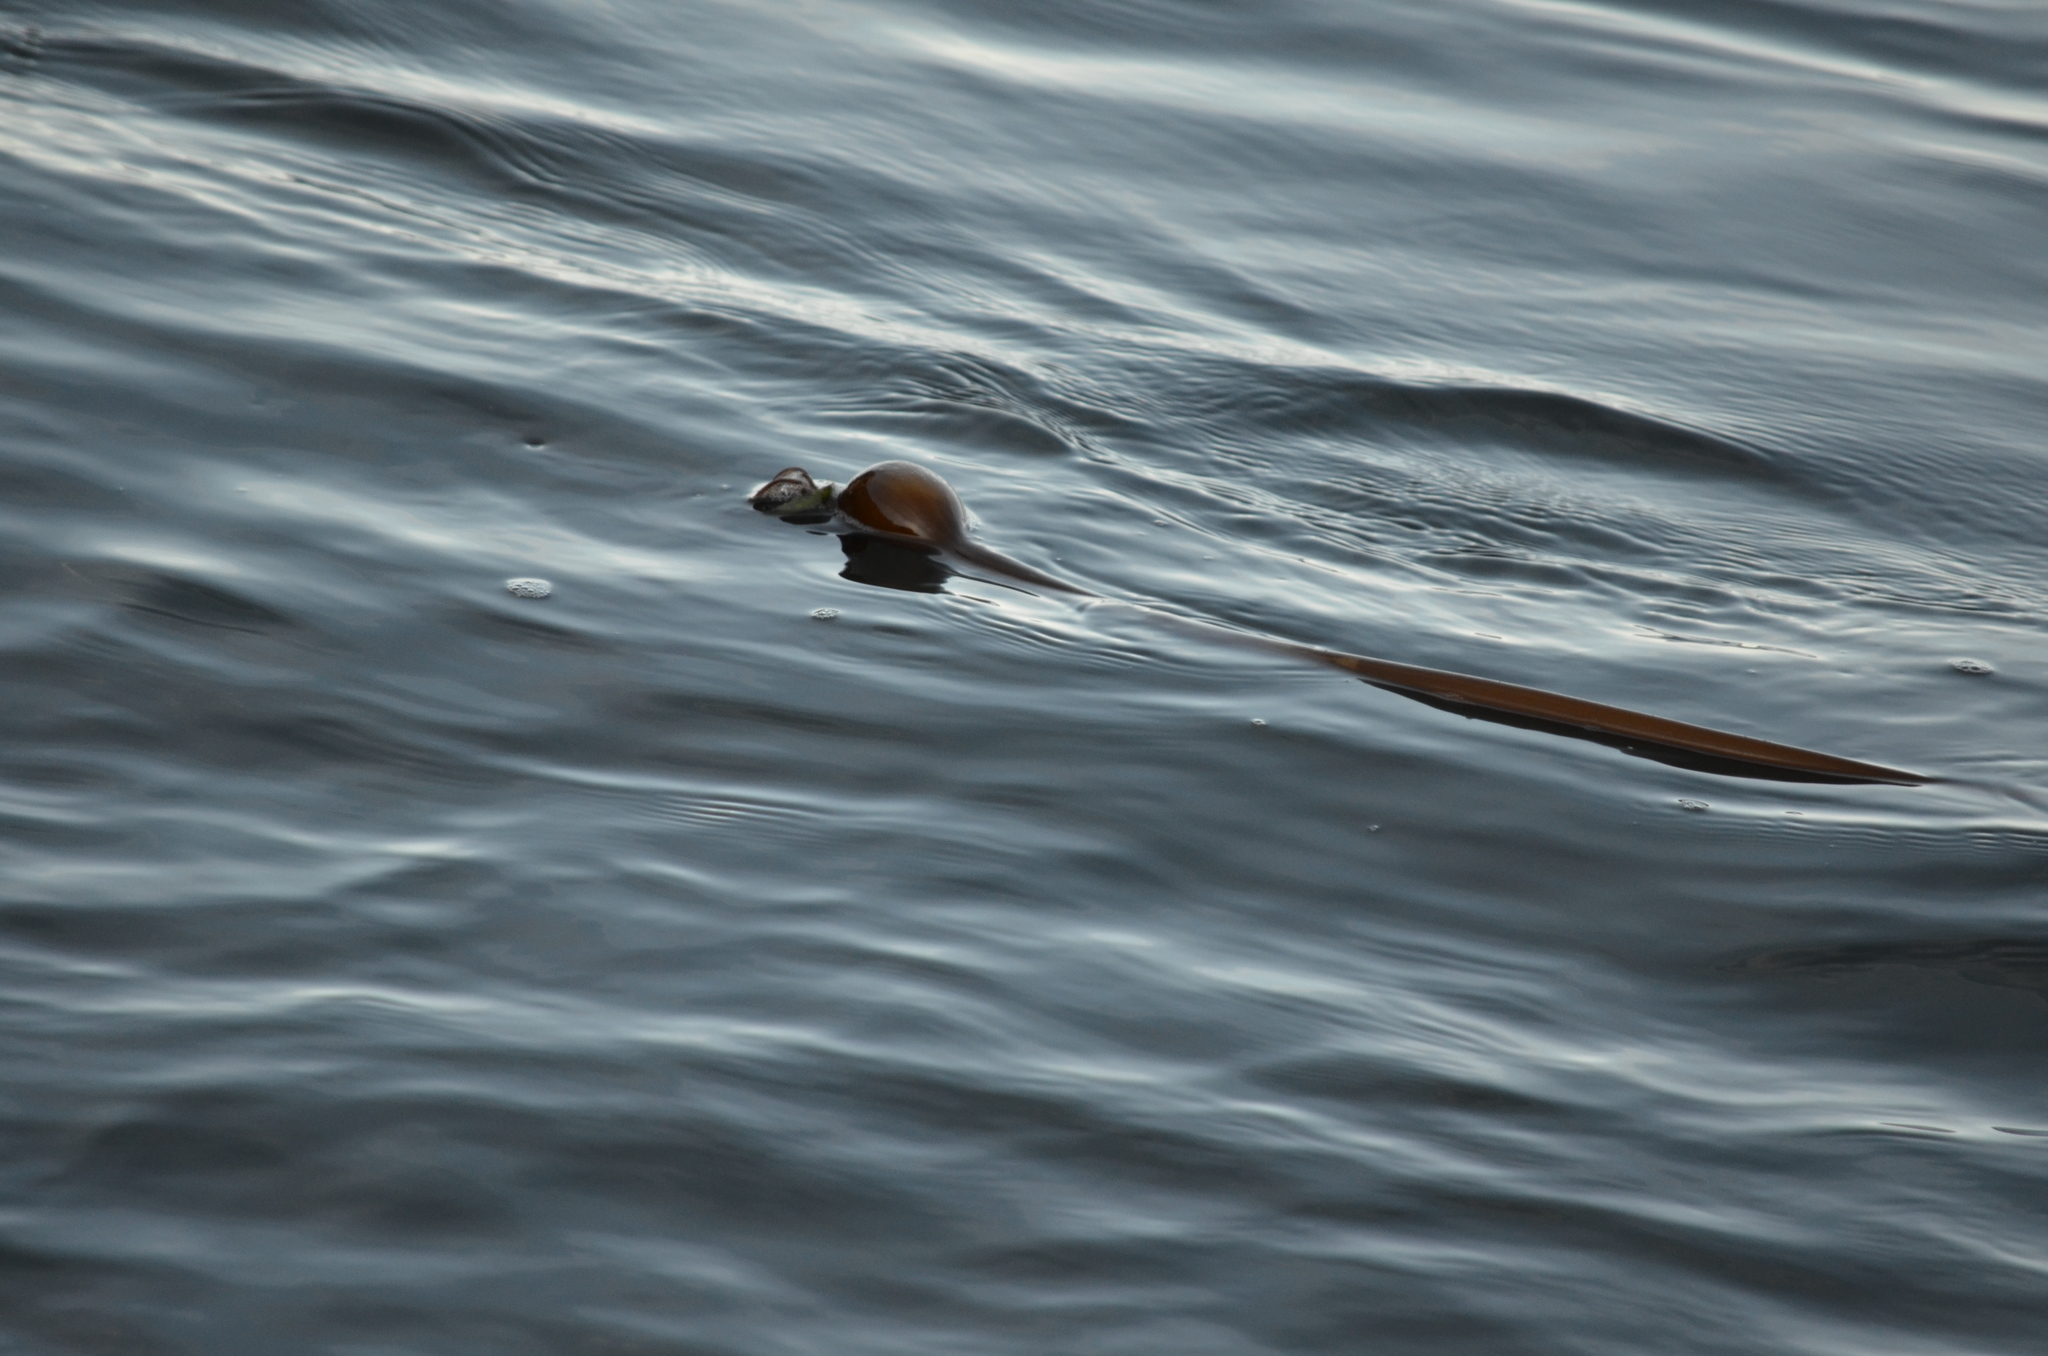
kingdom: Chromista
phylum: Ochrophyta
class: Phaeophyceae
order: Laminariales
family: Laminariaceae
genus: Nereocystis
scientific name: Nereocystis luetkeana
